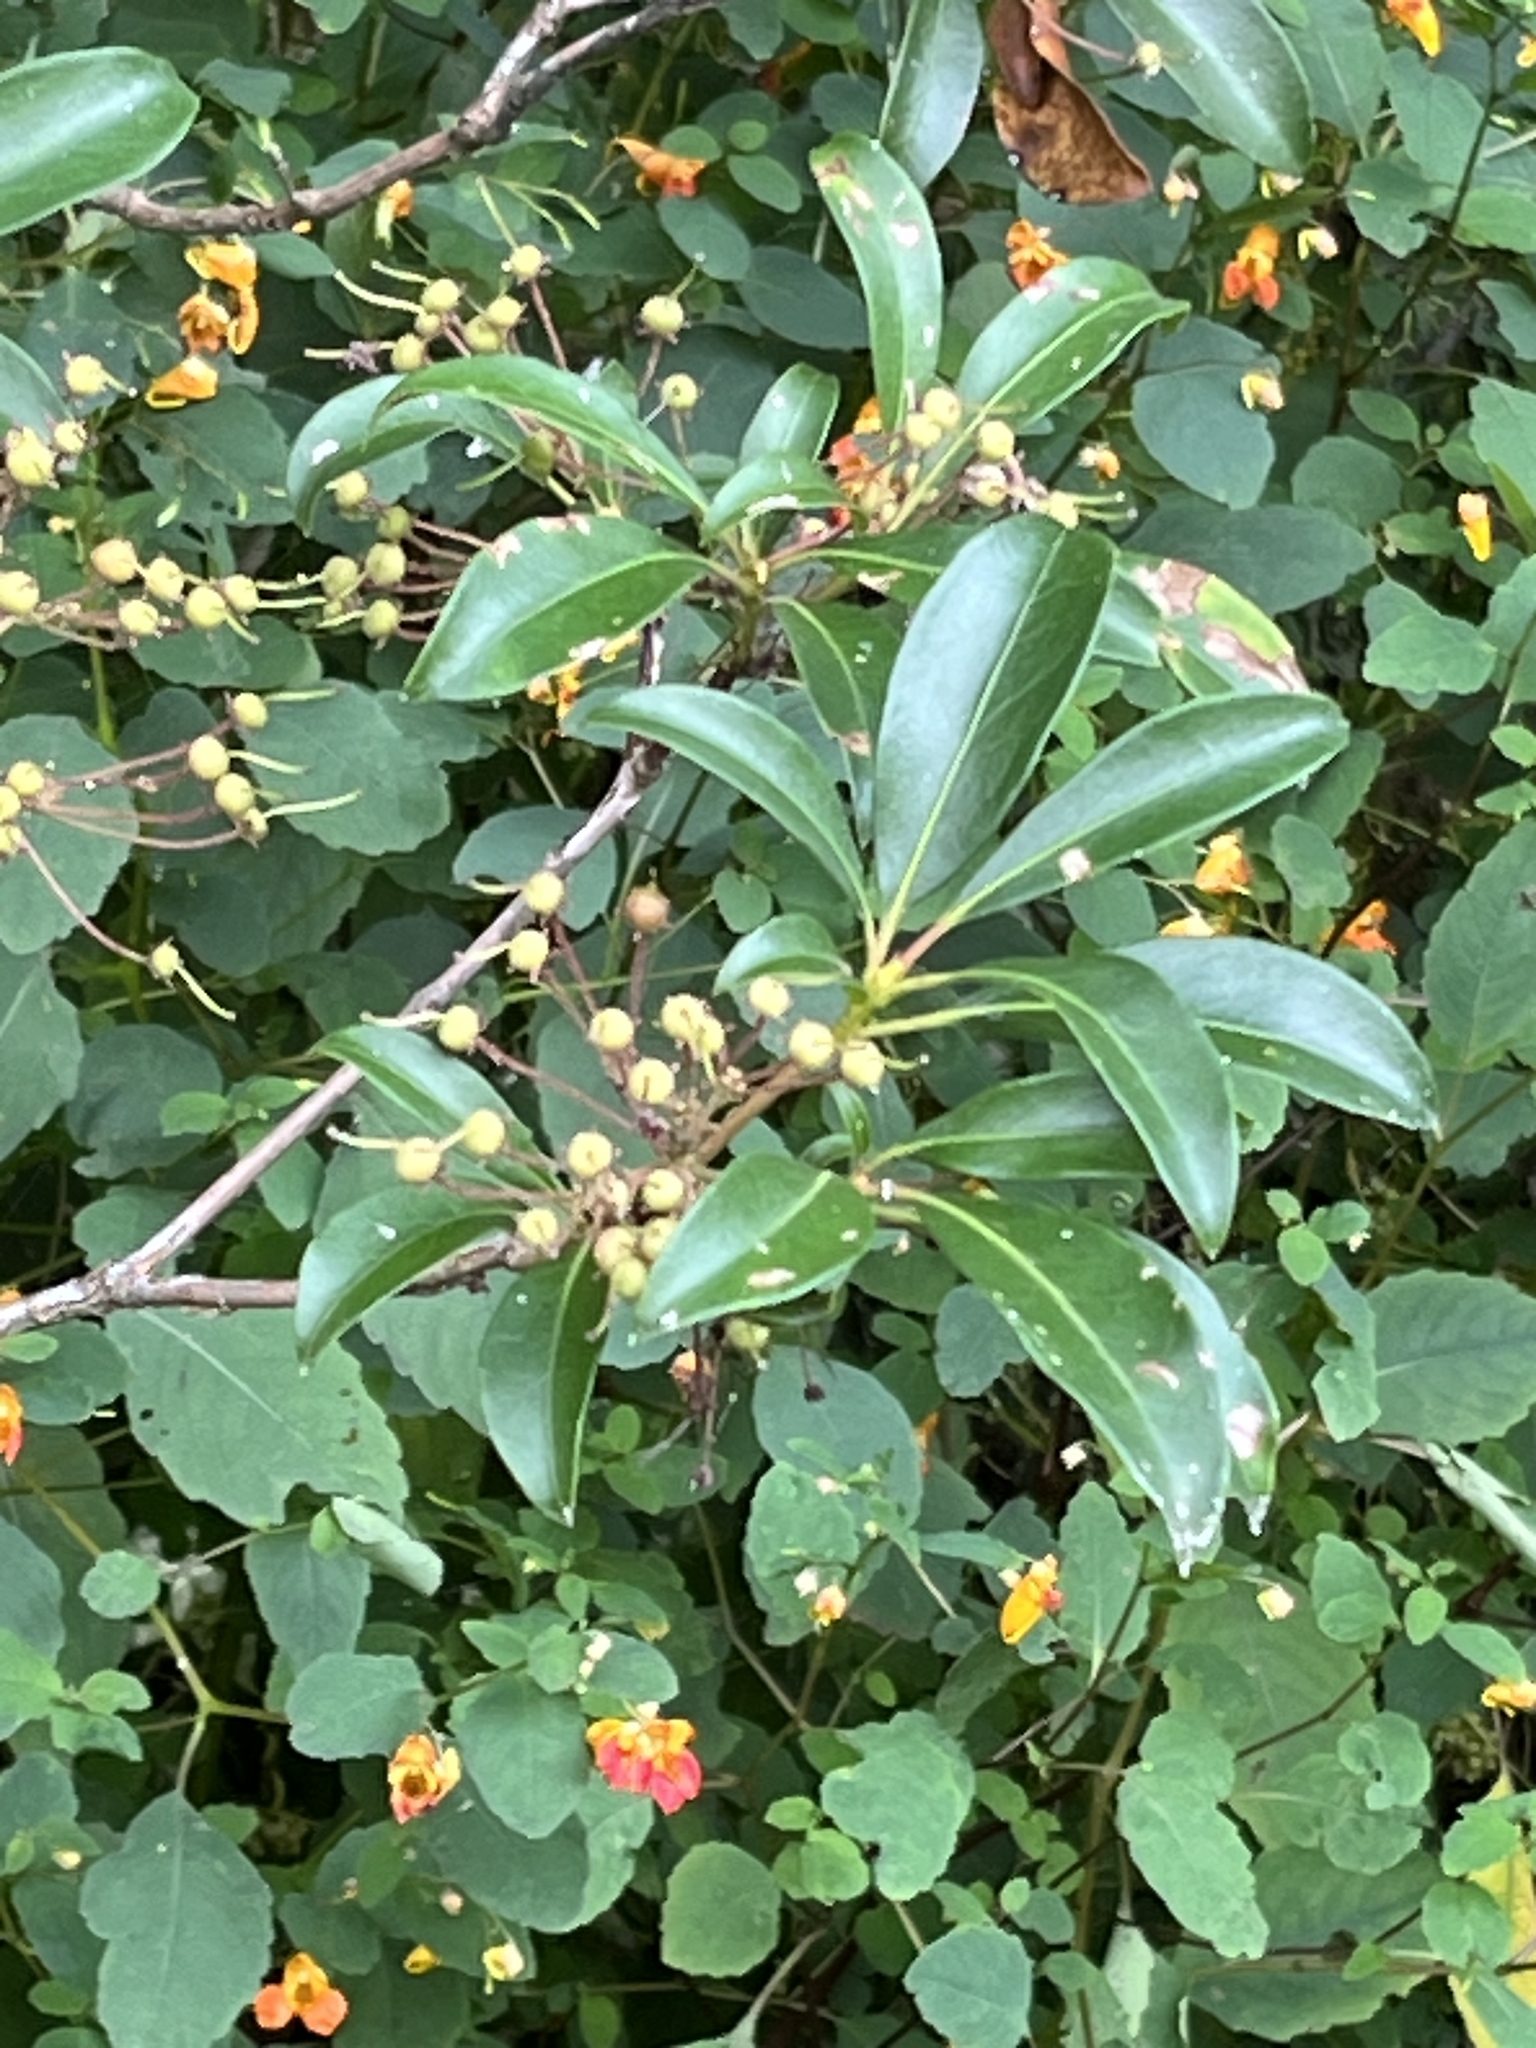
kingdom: Plantae
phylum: Tracheophyta
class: Magnoliopsida
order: Ericales
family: Ericaceae
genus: Kalmia
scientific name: Kalmia latifolia
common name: Mountain-laurel
